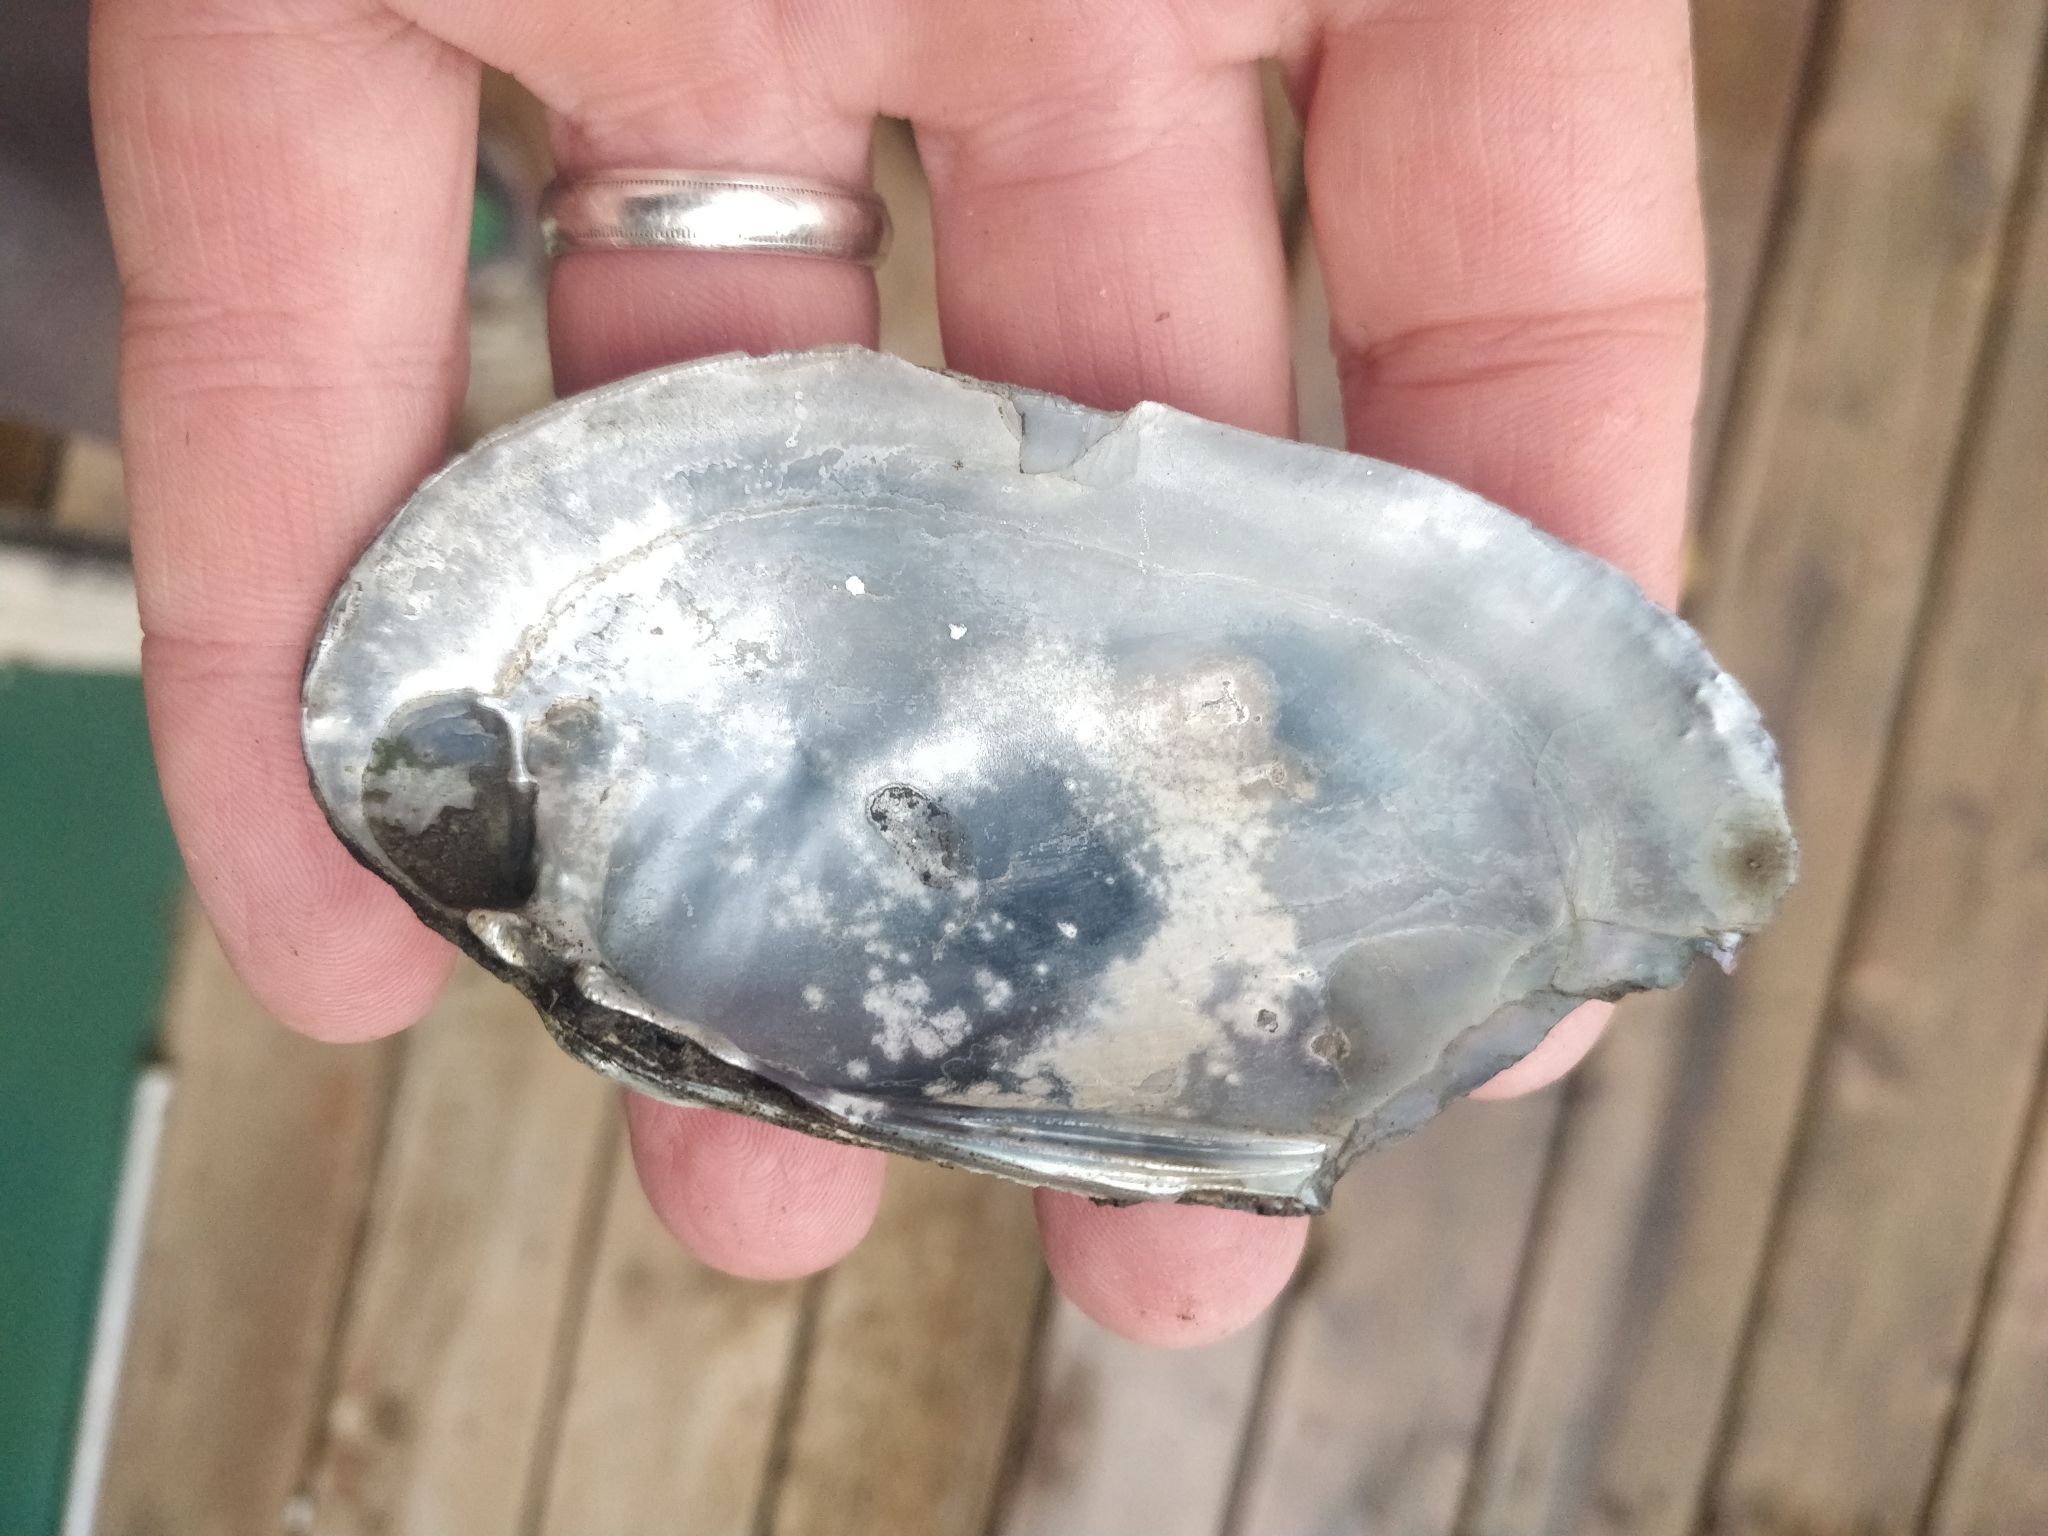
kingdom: Animalia
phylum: Mollusca
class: Bivalvia
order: Unionida
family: Unionidae
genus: Lampsilis
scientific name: Lampsilis siliquoidea
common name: Fatmucket
